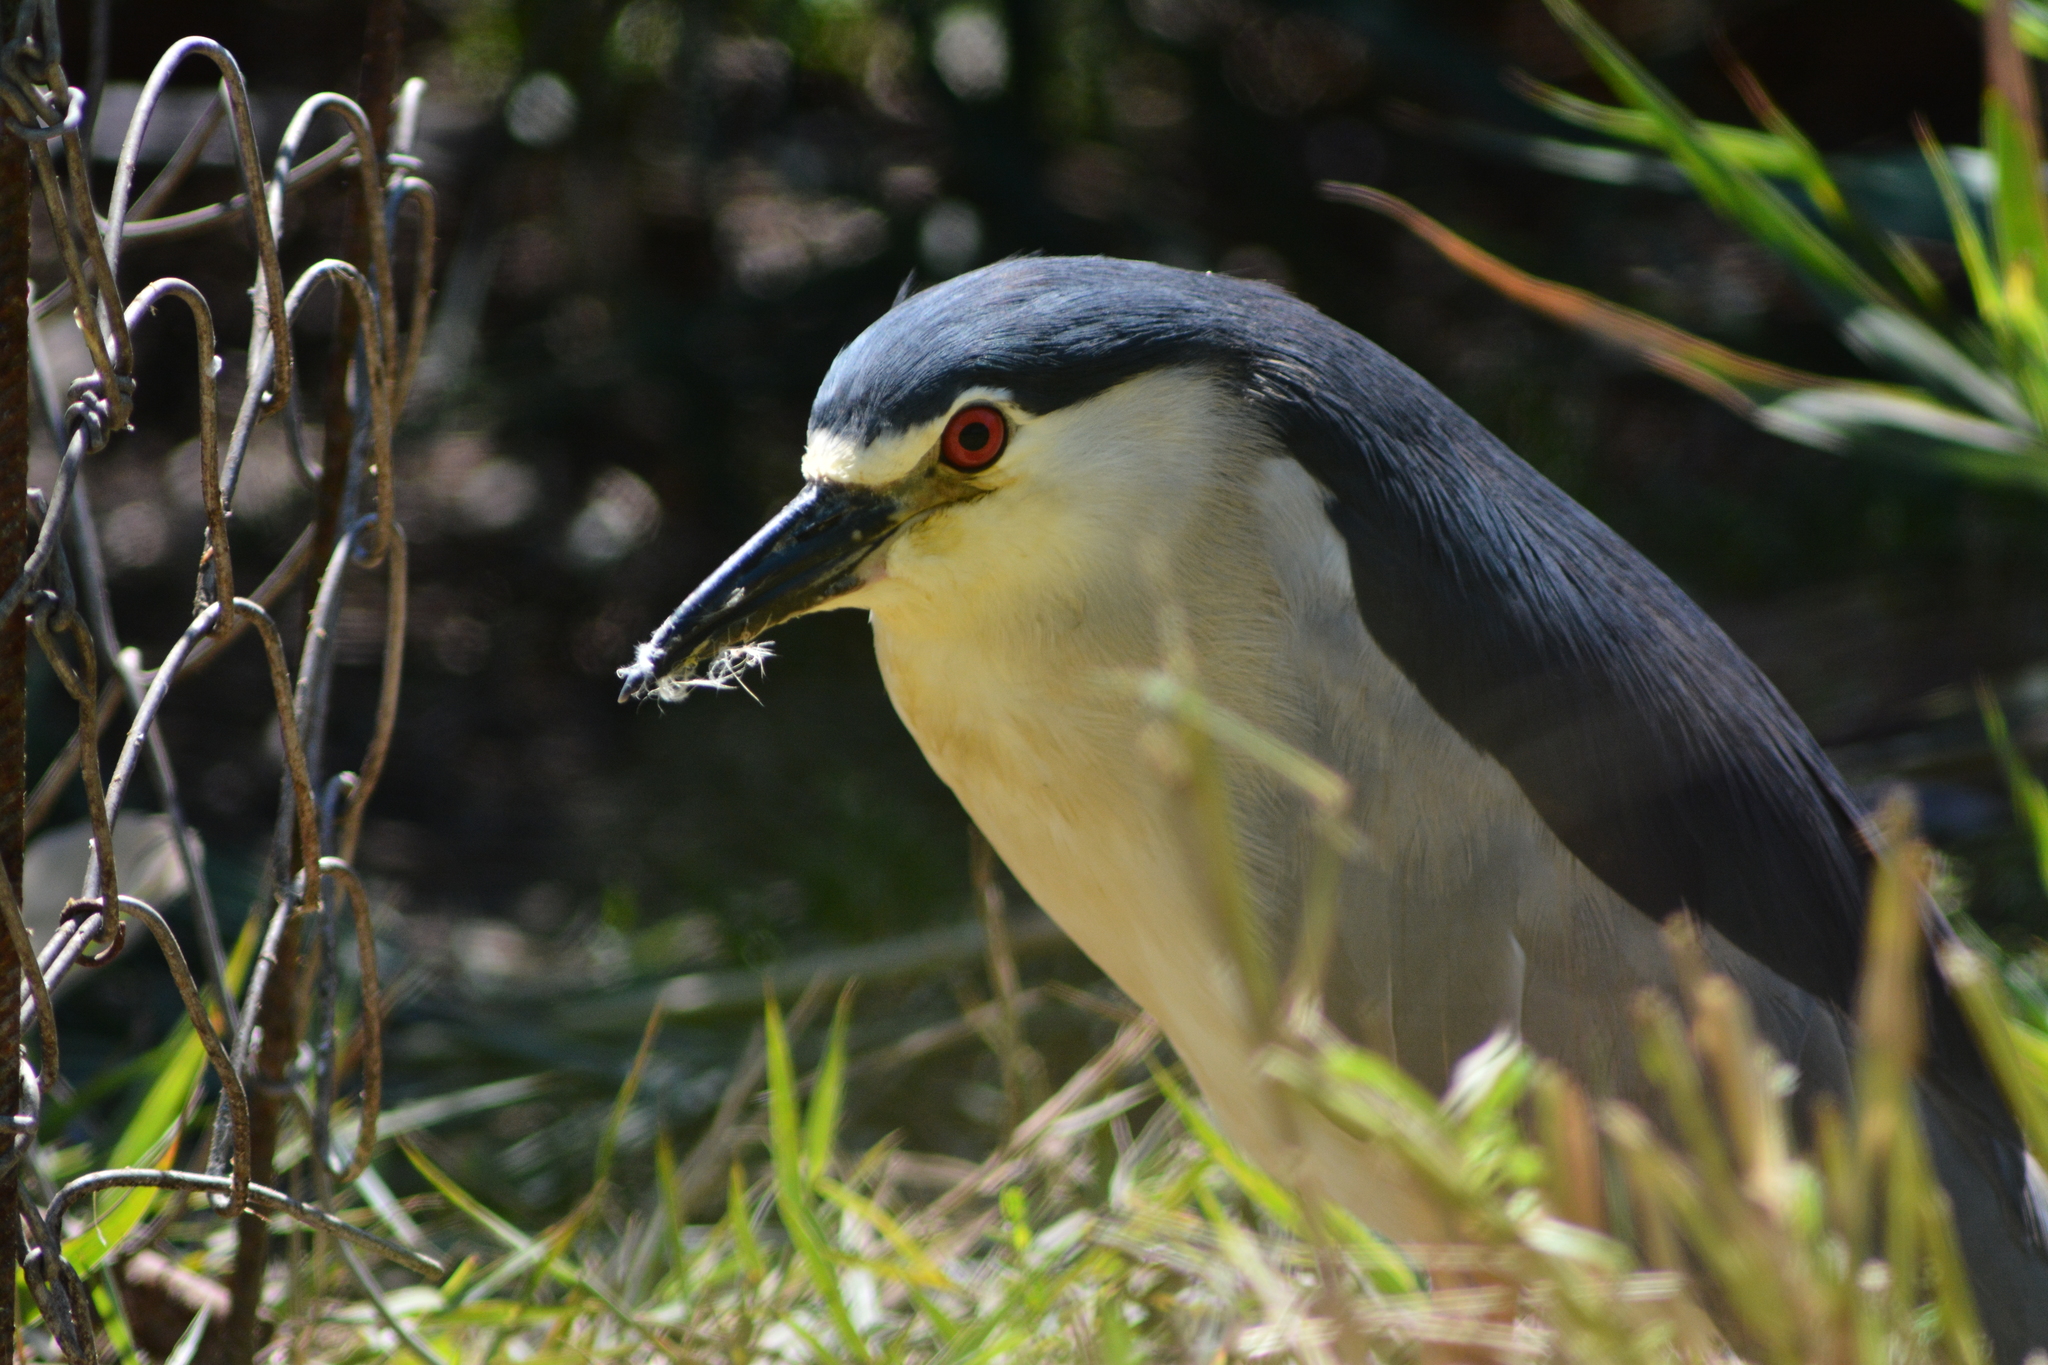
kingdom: Animalia
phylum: Chordata
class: Aves
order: Pelecaniformes
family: Ardeidae
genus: Nycticorax
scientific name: Nycticorax nycticorax
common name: Black-crowned night heron
